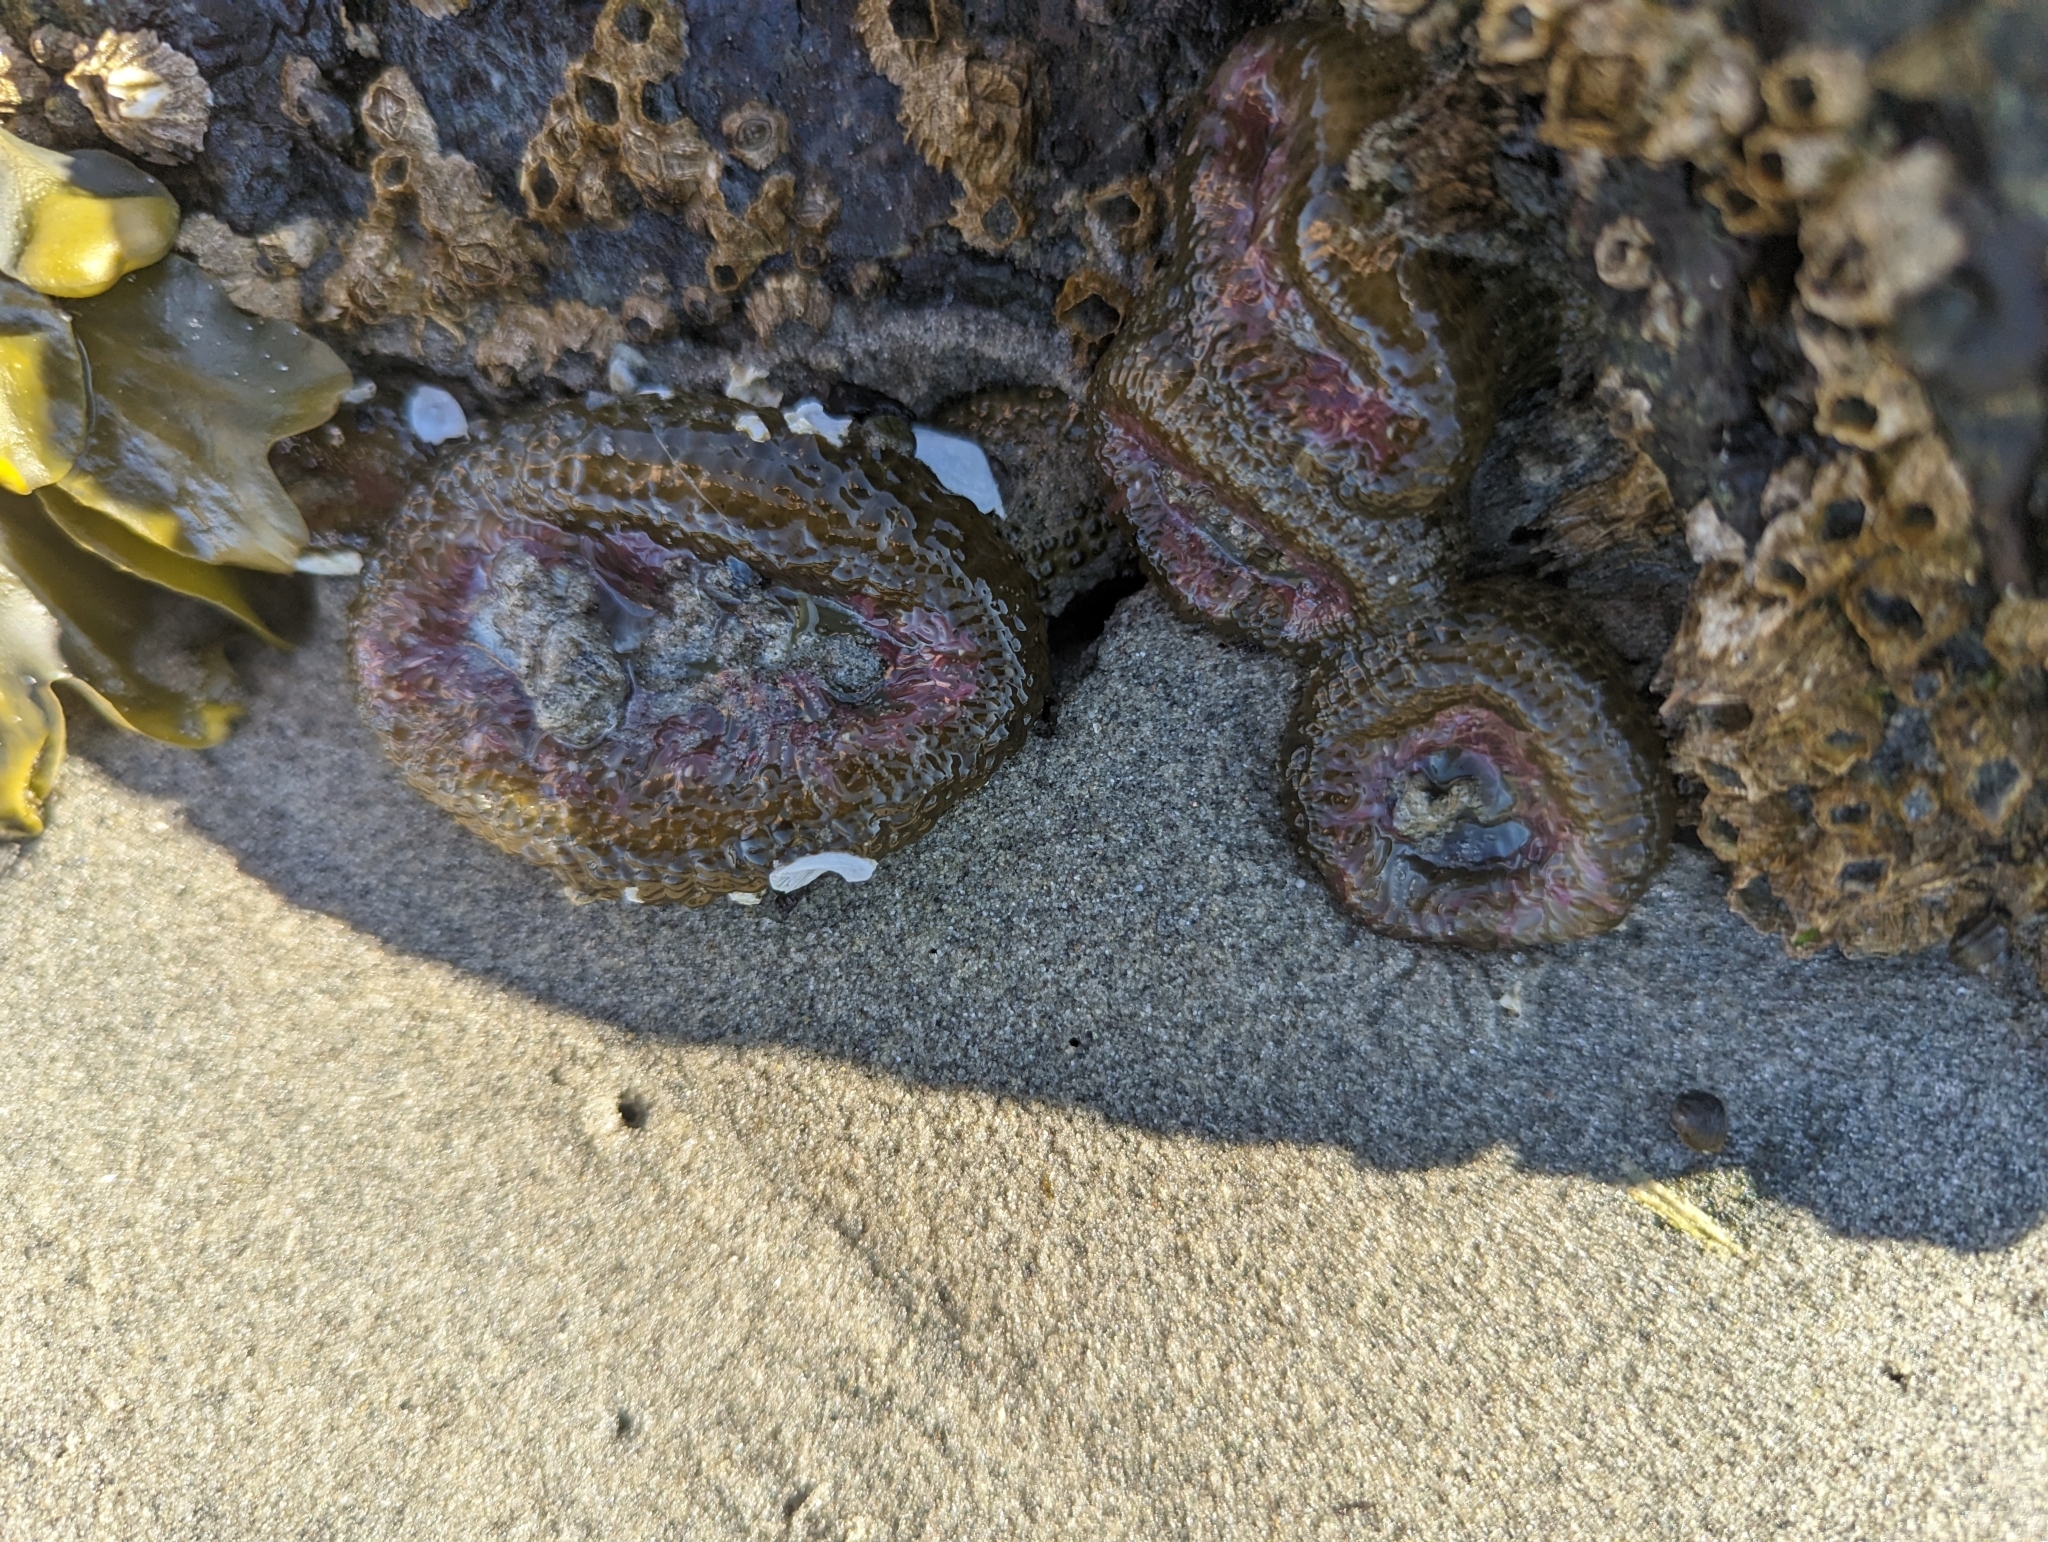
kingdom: Animalia
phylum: Cnidaria
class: Anthozoa
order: Actiniaria
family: Actiniidae
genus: Anthopleura
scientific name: Anthopleura elegantissima
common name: Clonal anemone
